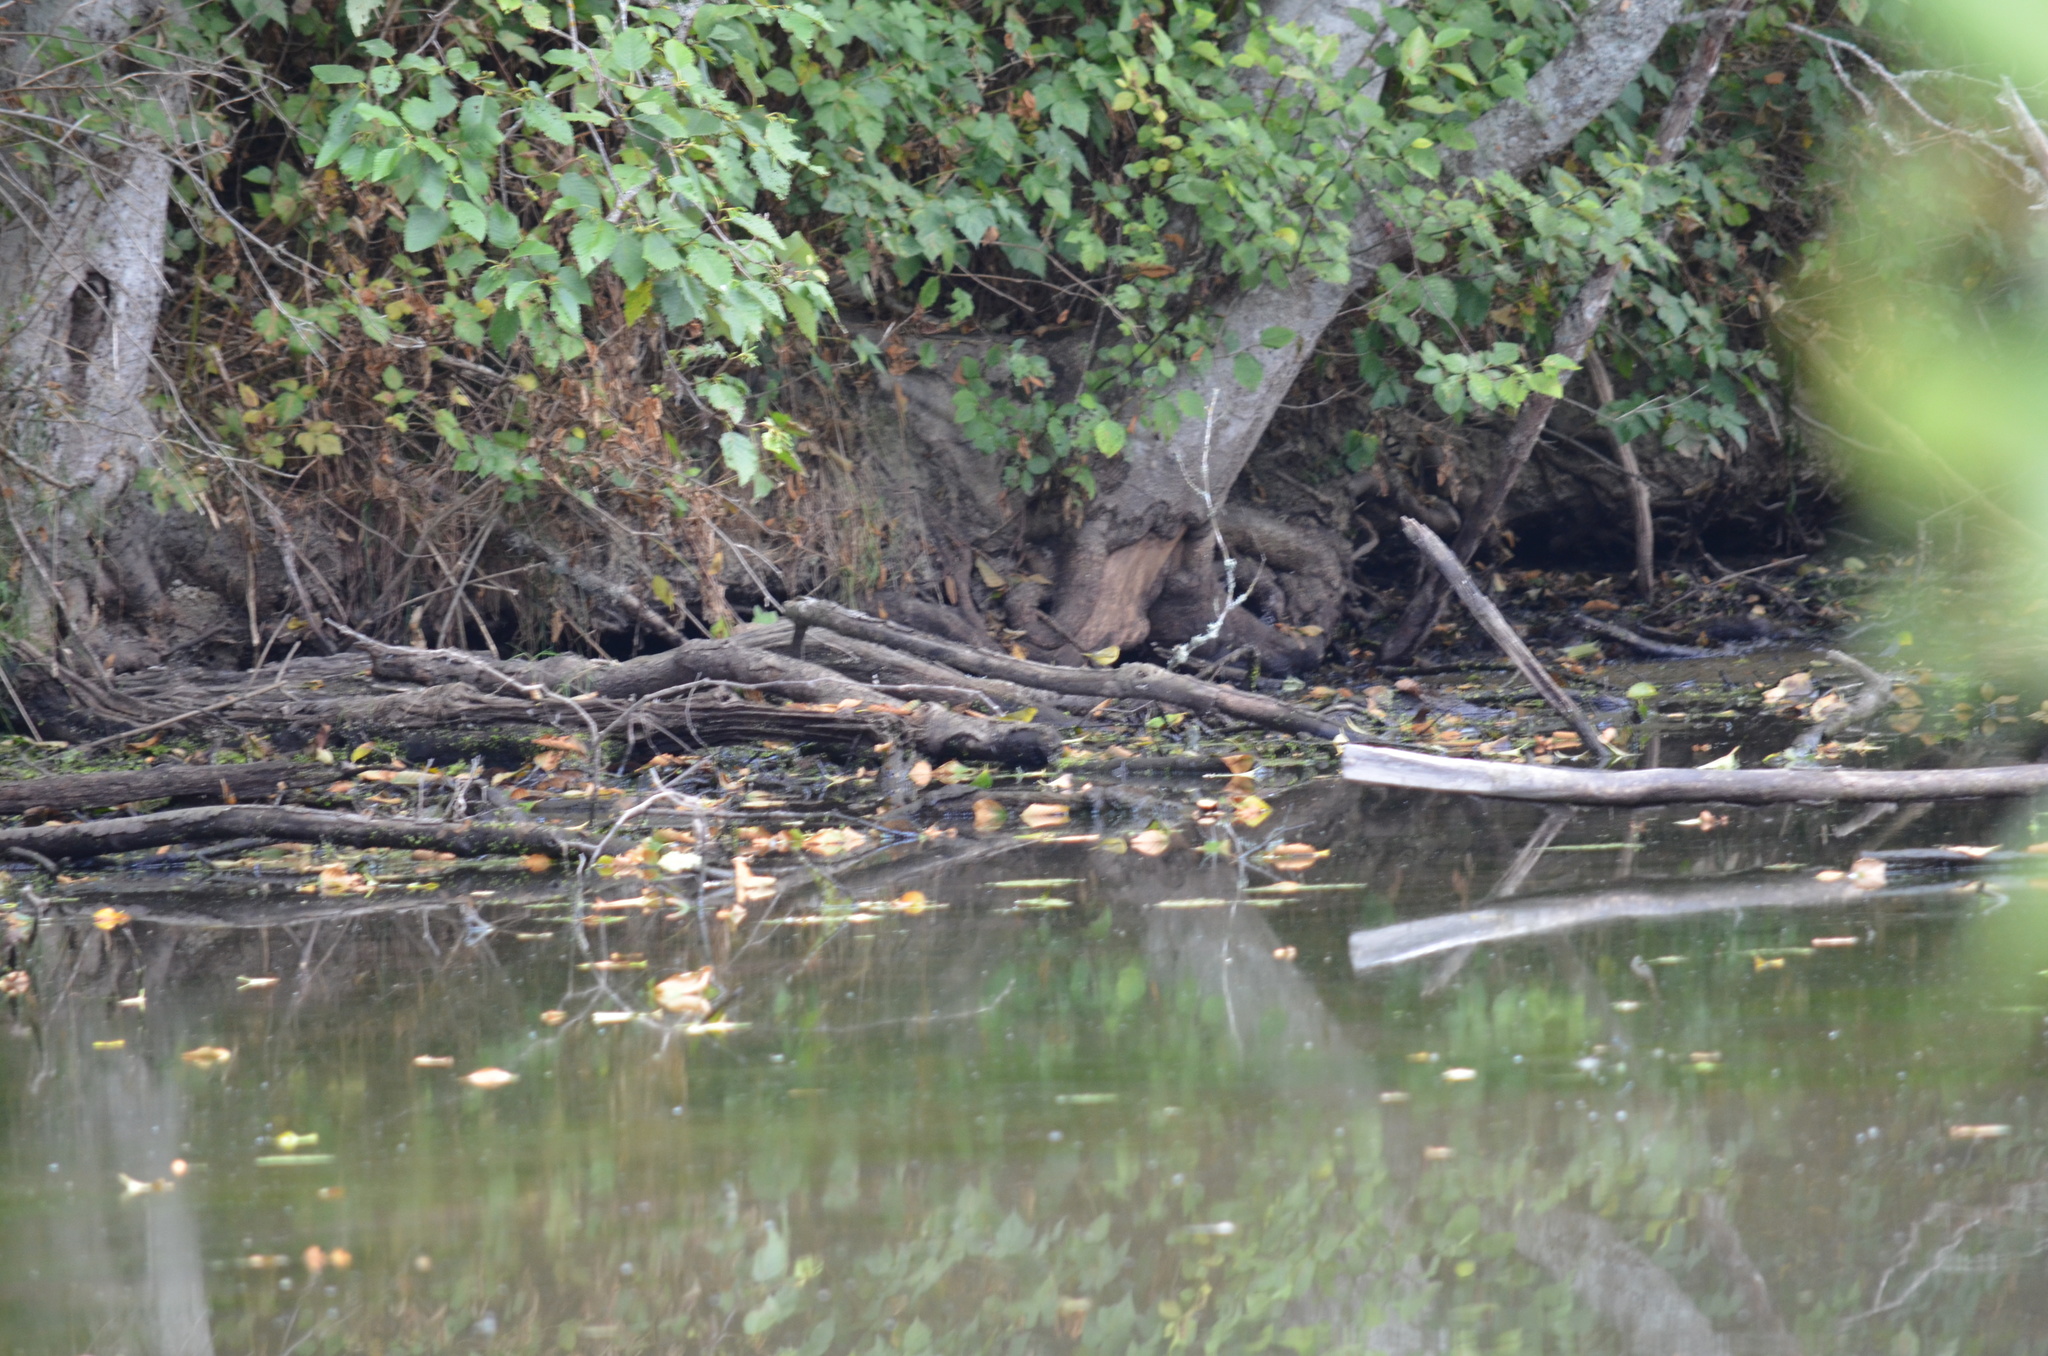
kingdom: Animalia
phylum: Chordata
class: Aves
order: Passeriformes
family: Parulidae
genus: Setophaga
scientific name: Setophaga petechia
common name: Yellow warbler
